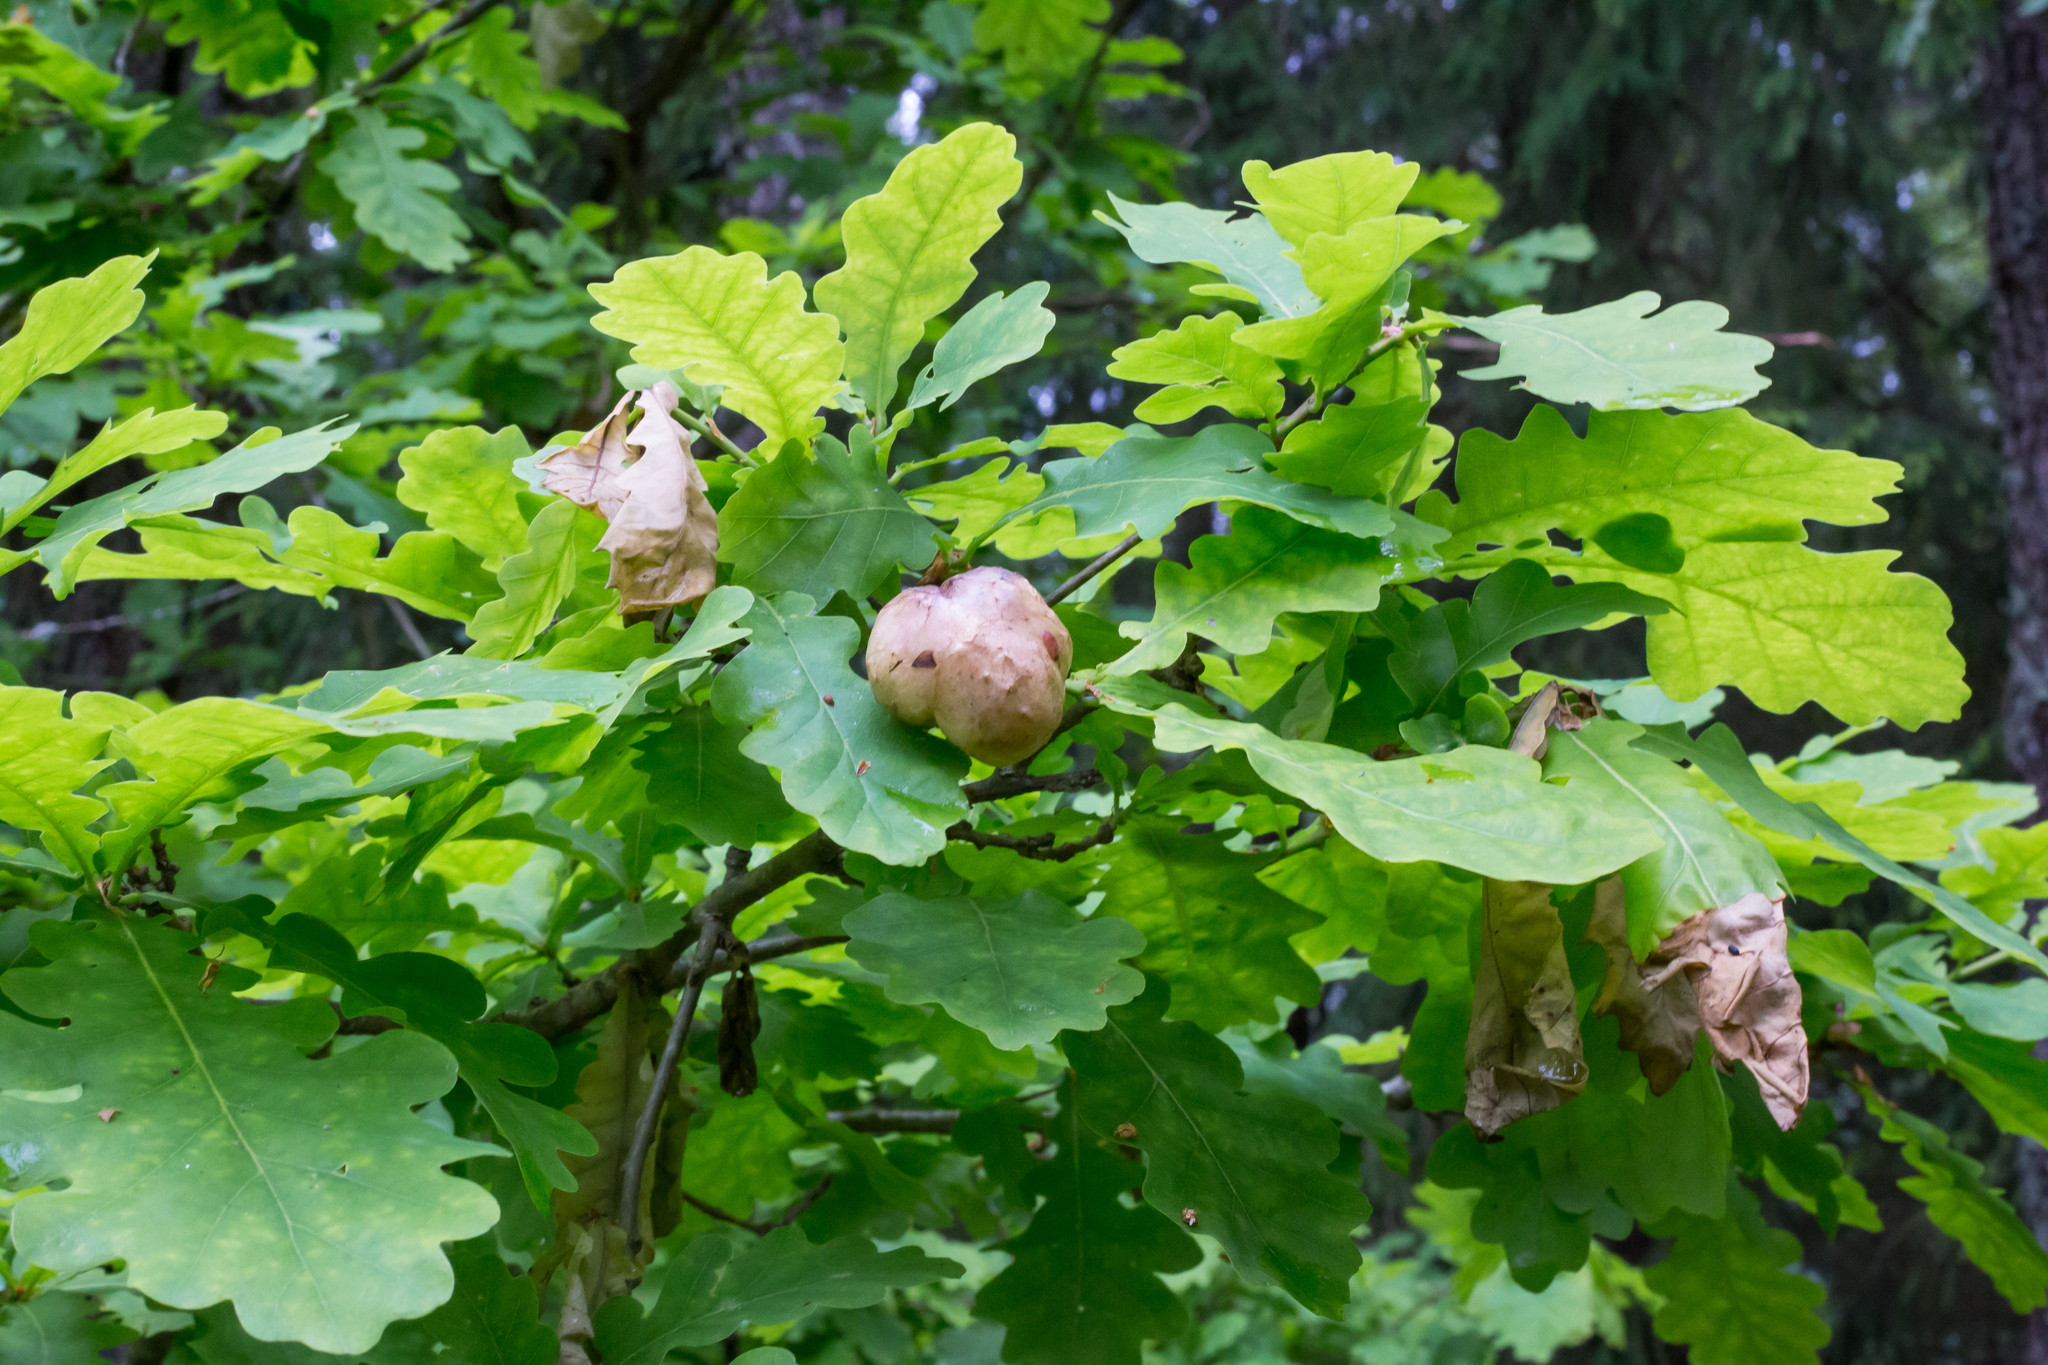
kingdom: Animalia
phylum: Arthropoda
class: Insecta
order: Hymenoptera
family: Cynipidae
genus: Biorhiza
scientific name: Biorhiza pallida
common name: Oak apple
